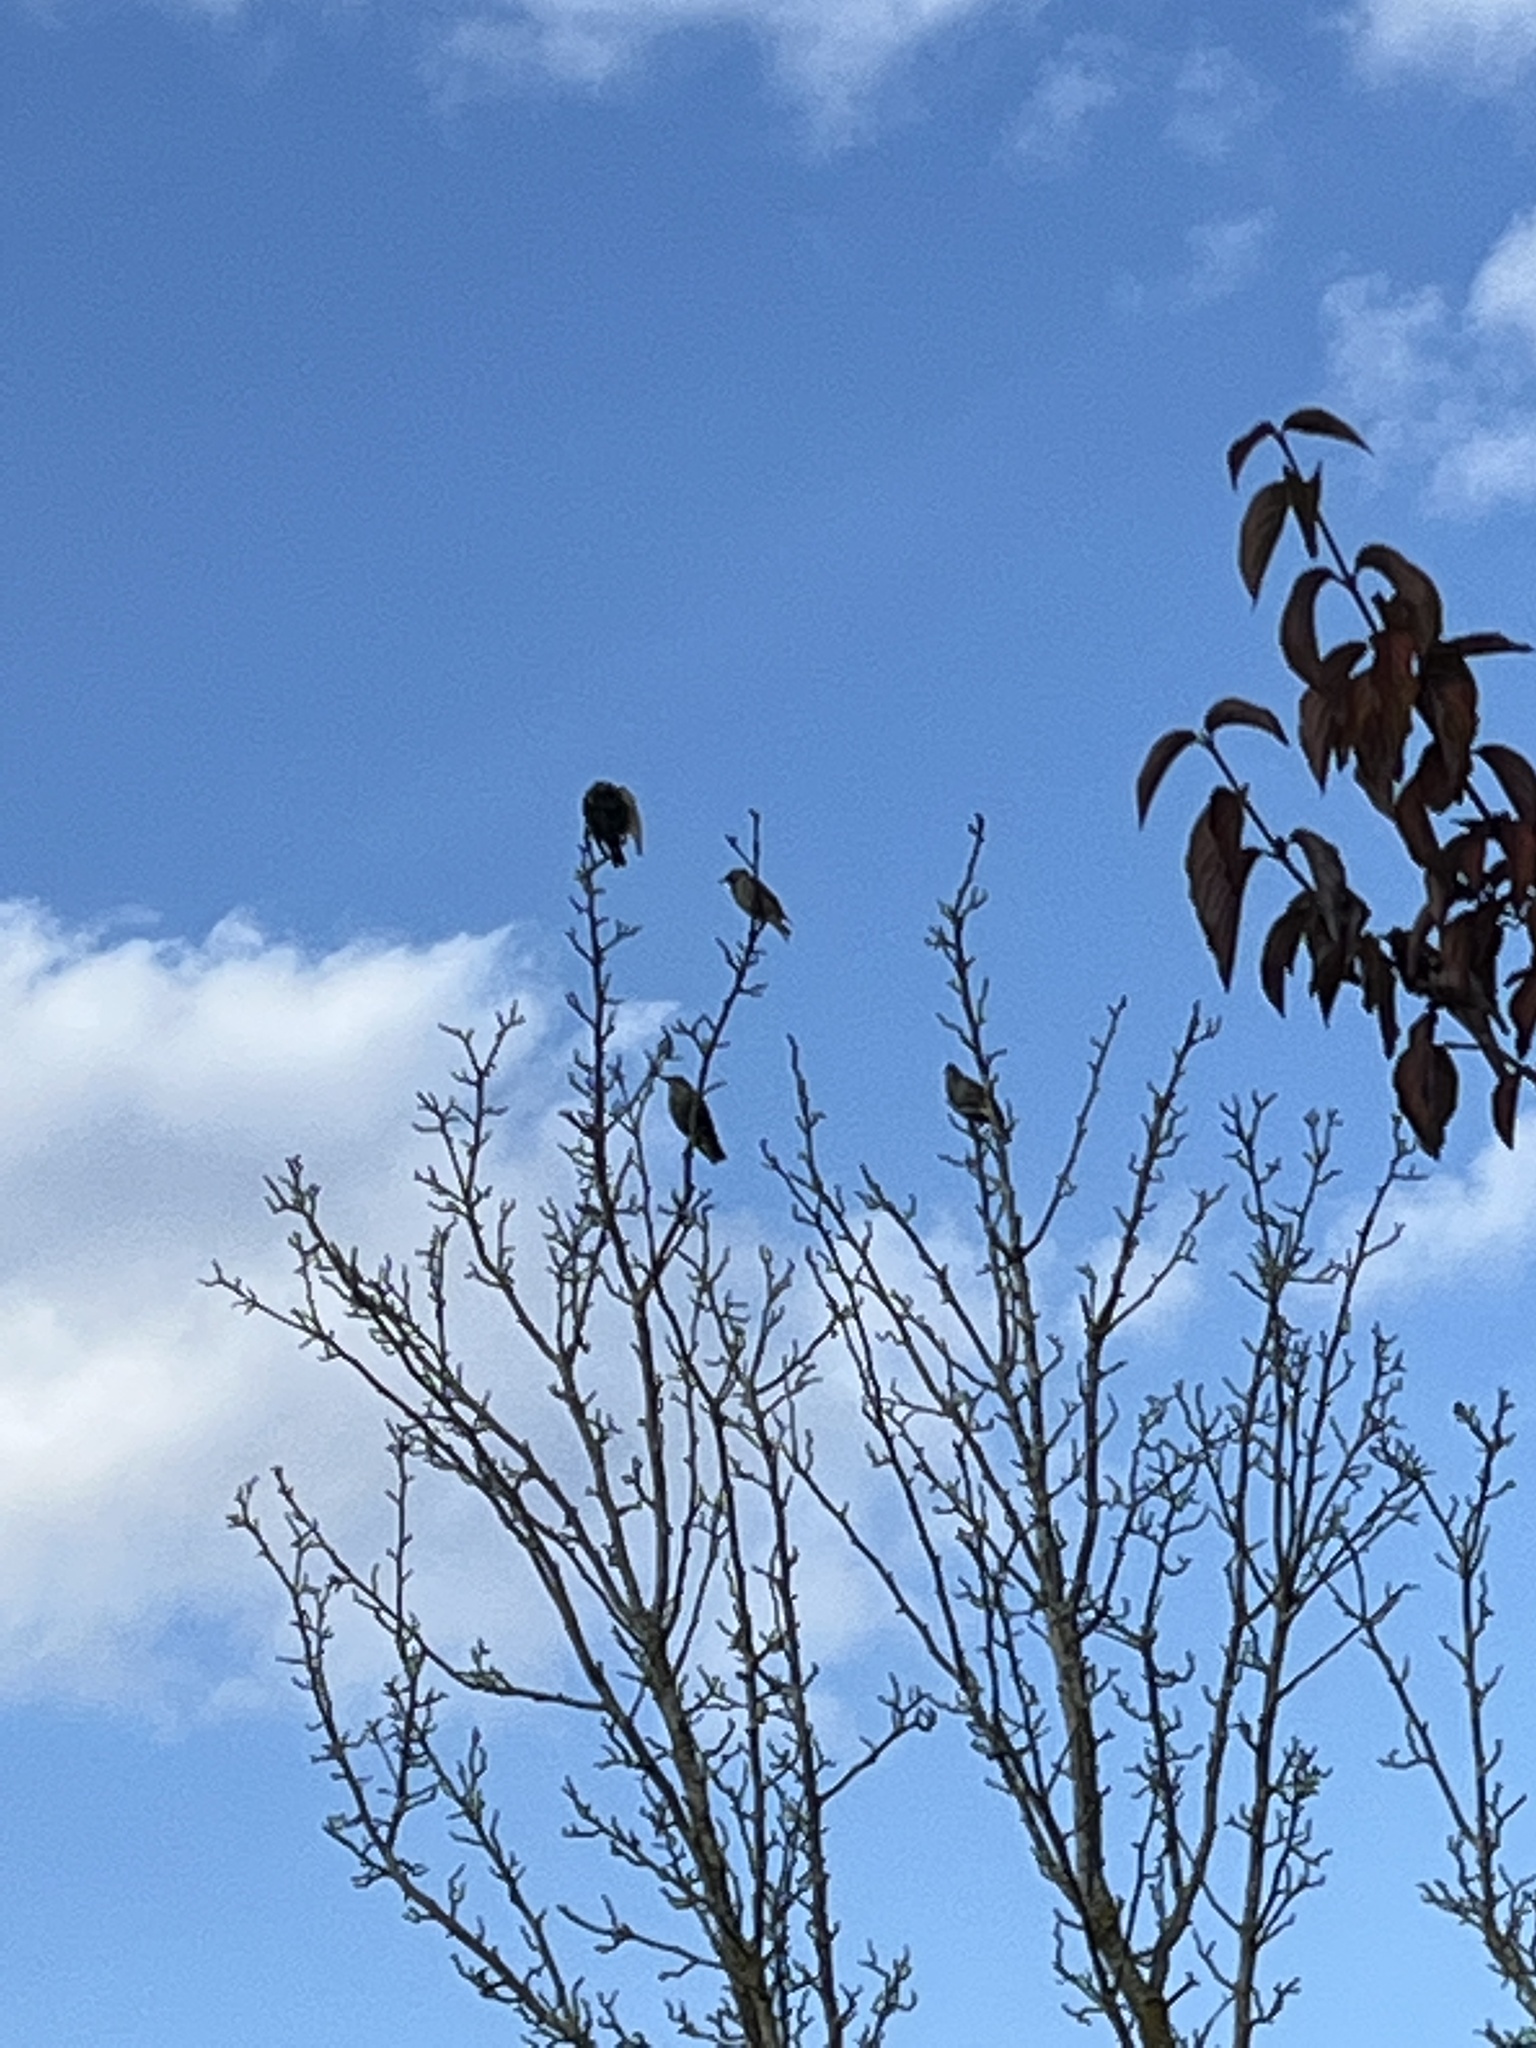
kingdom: Animalia
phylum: Chordata
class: Aves
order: Passeriformes
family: Sturnidae
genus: Sturnus
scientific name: Sturnus vulgaris
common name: Common starling
